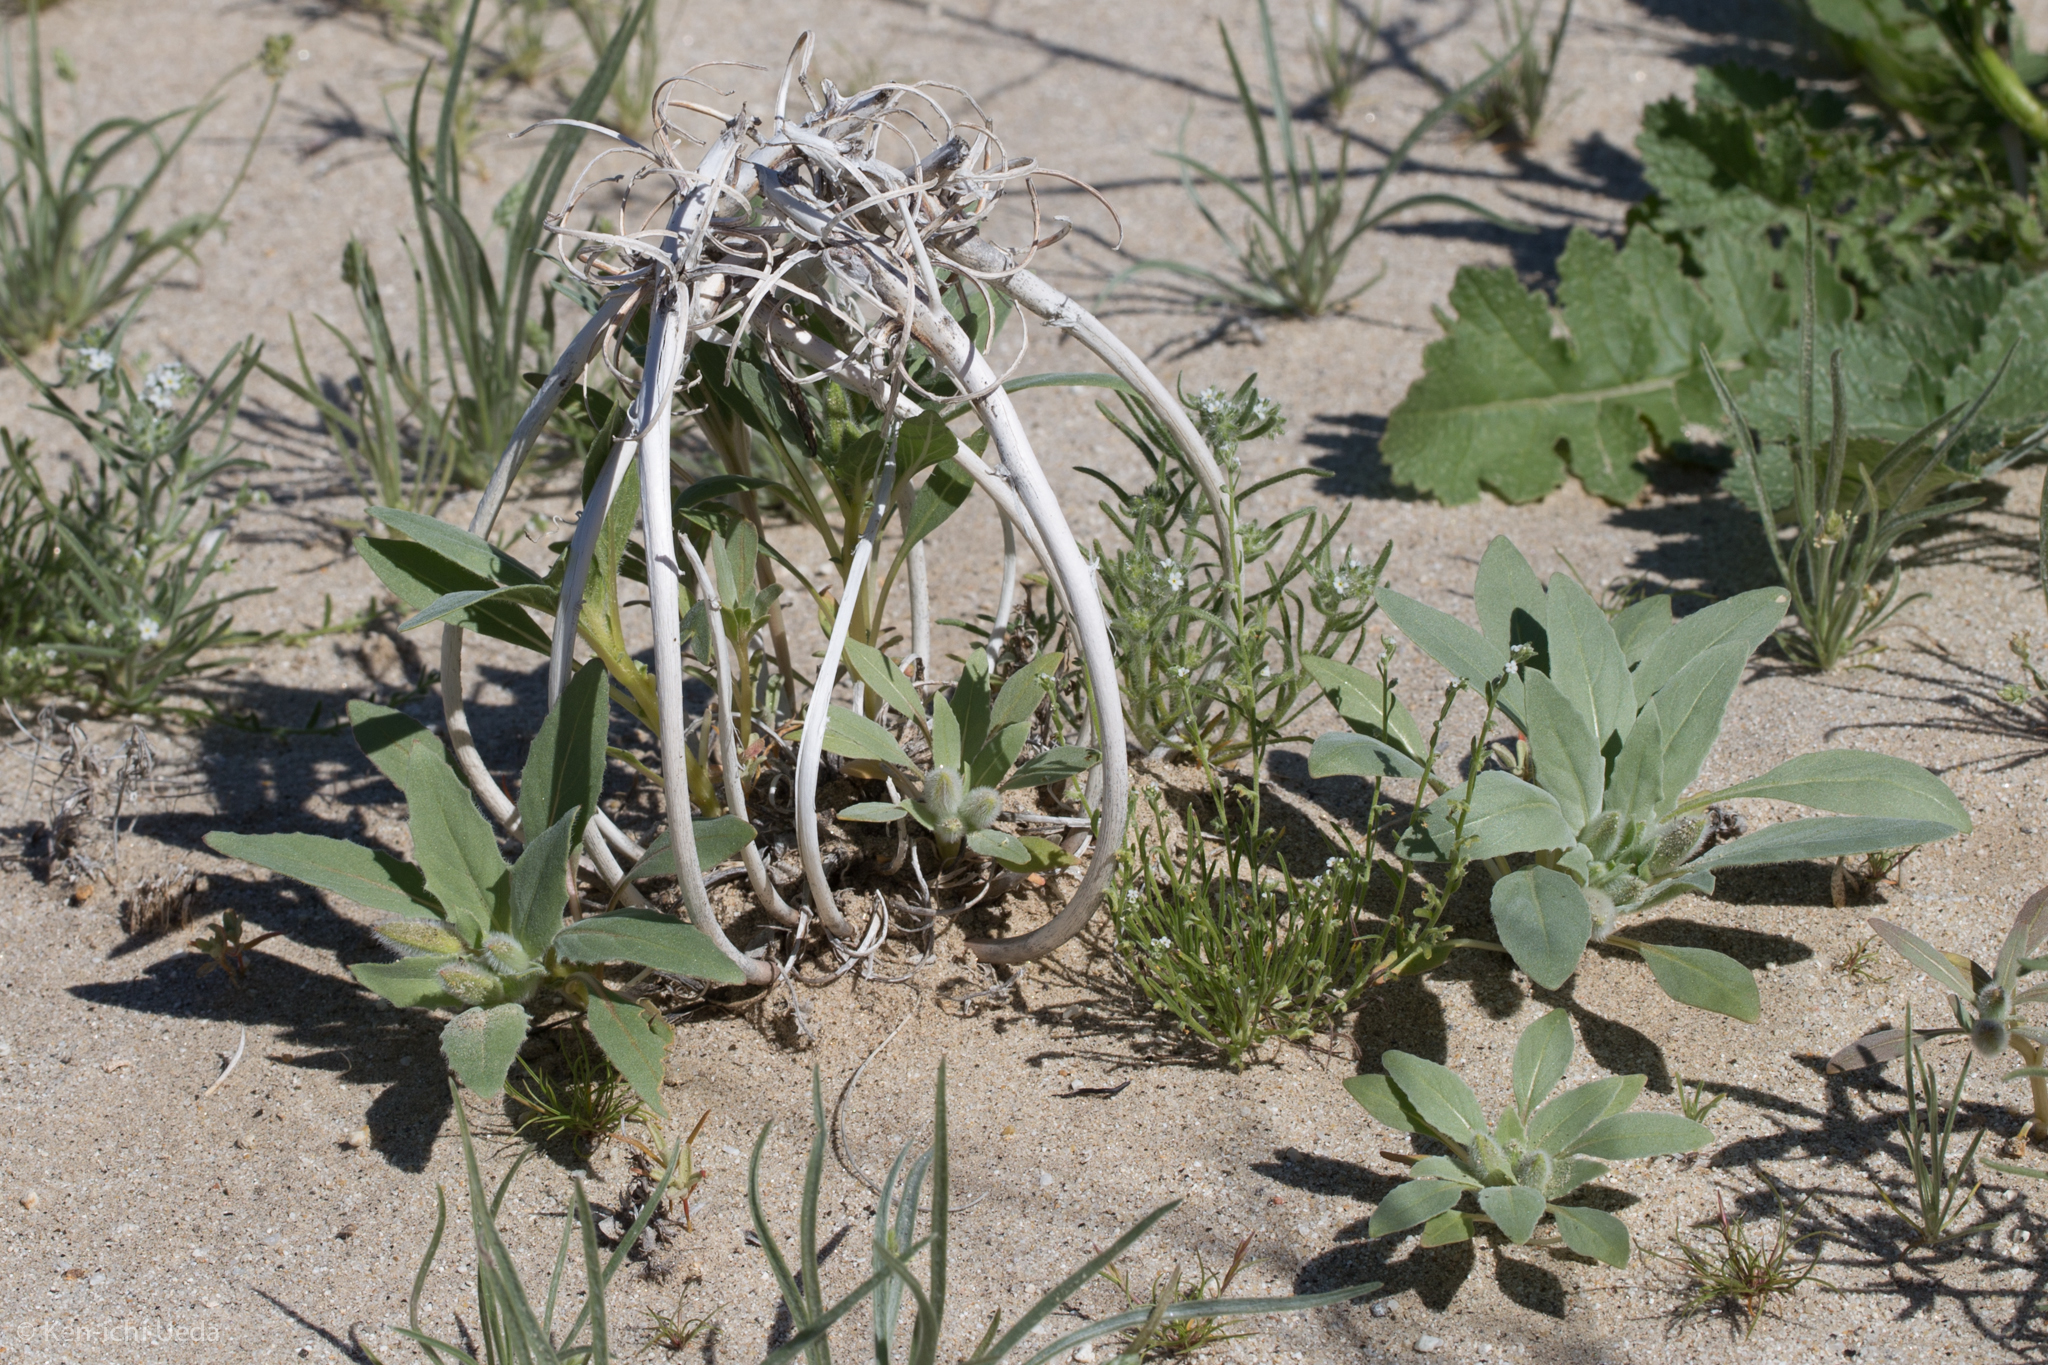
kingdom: Plantae
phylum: Tracheophyta
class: Magnoliopsida
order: Myrtales
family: Onagraceae
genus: Oenothera
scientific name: Oenothera deltoides
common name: Basket evening-primrose
